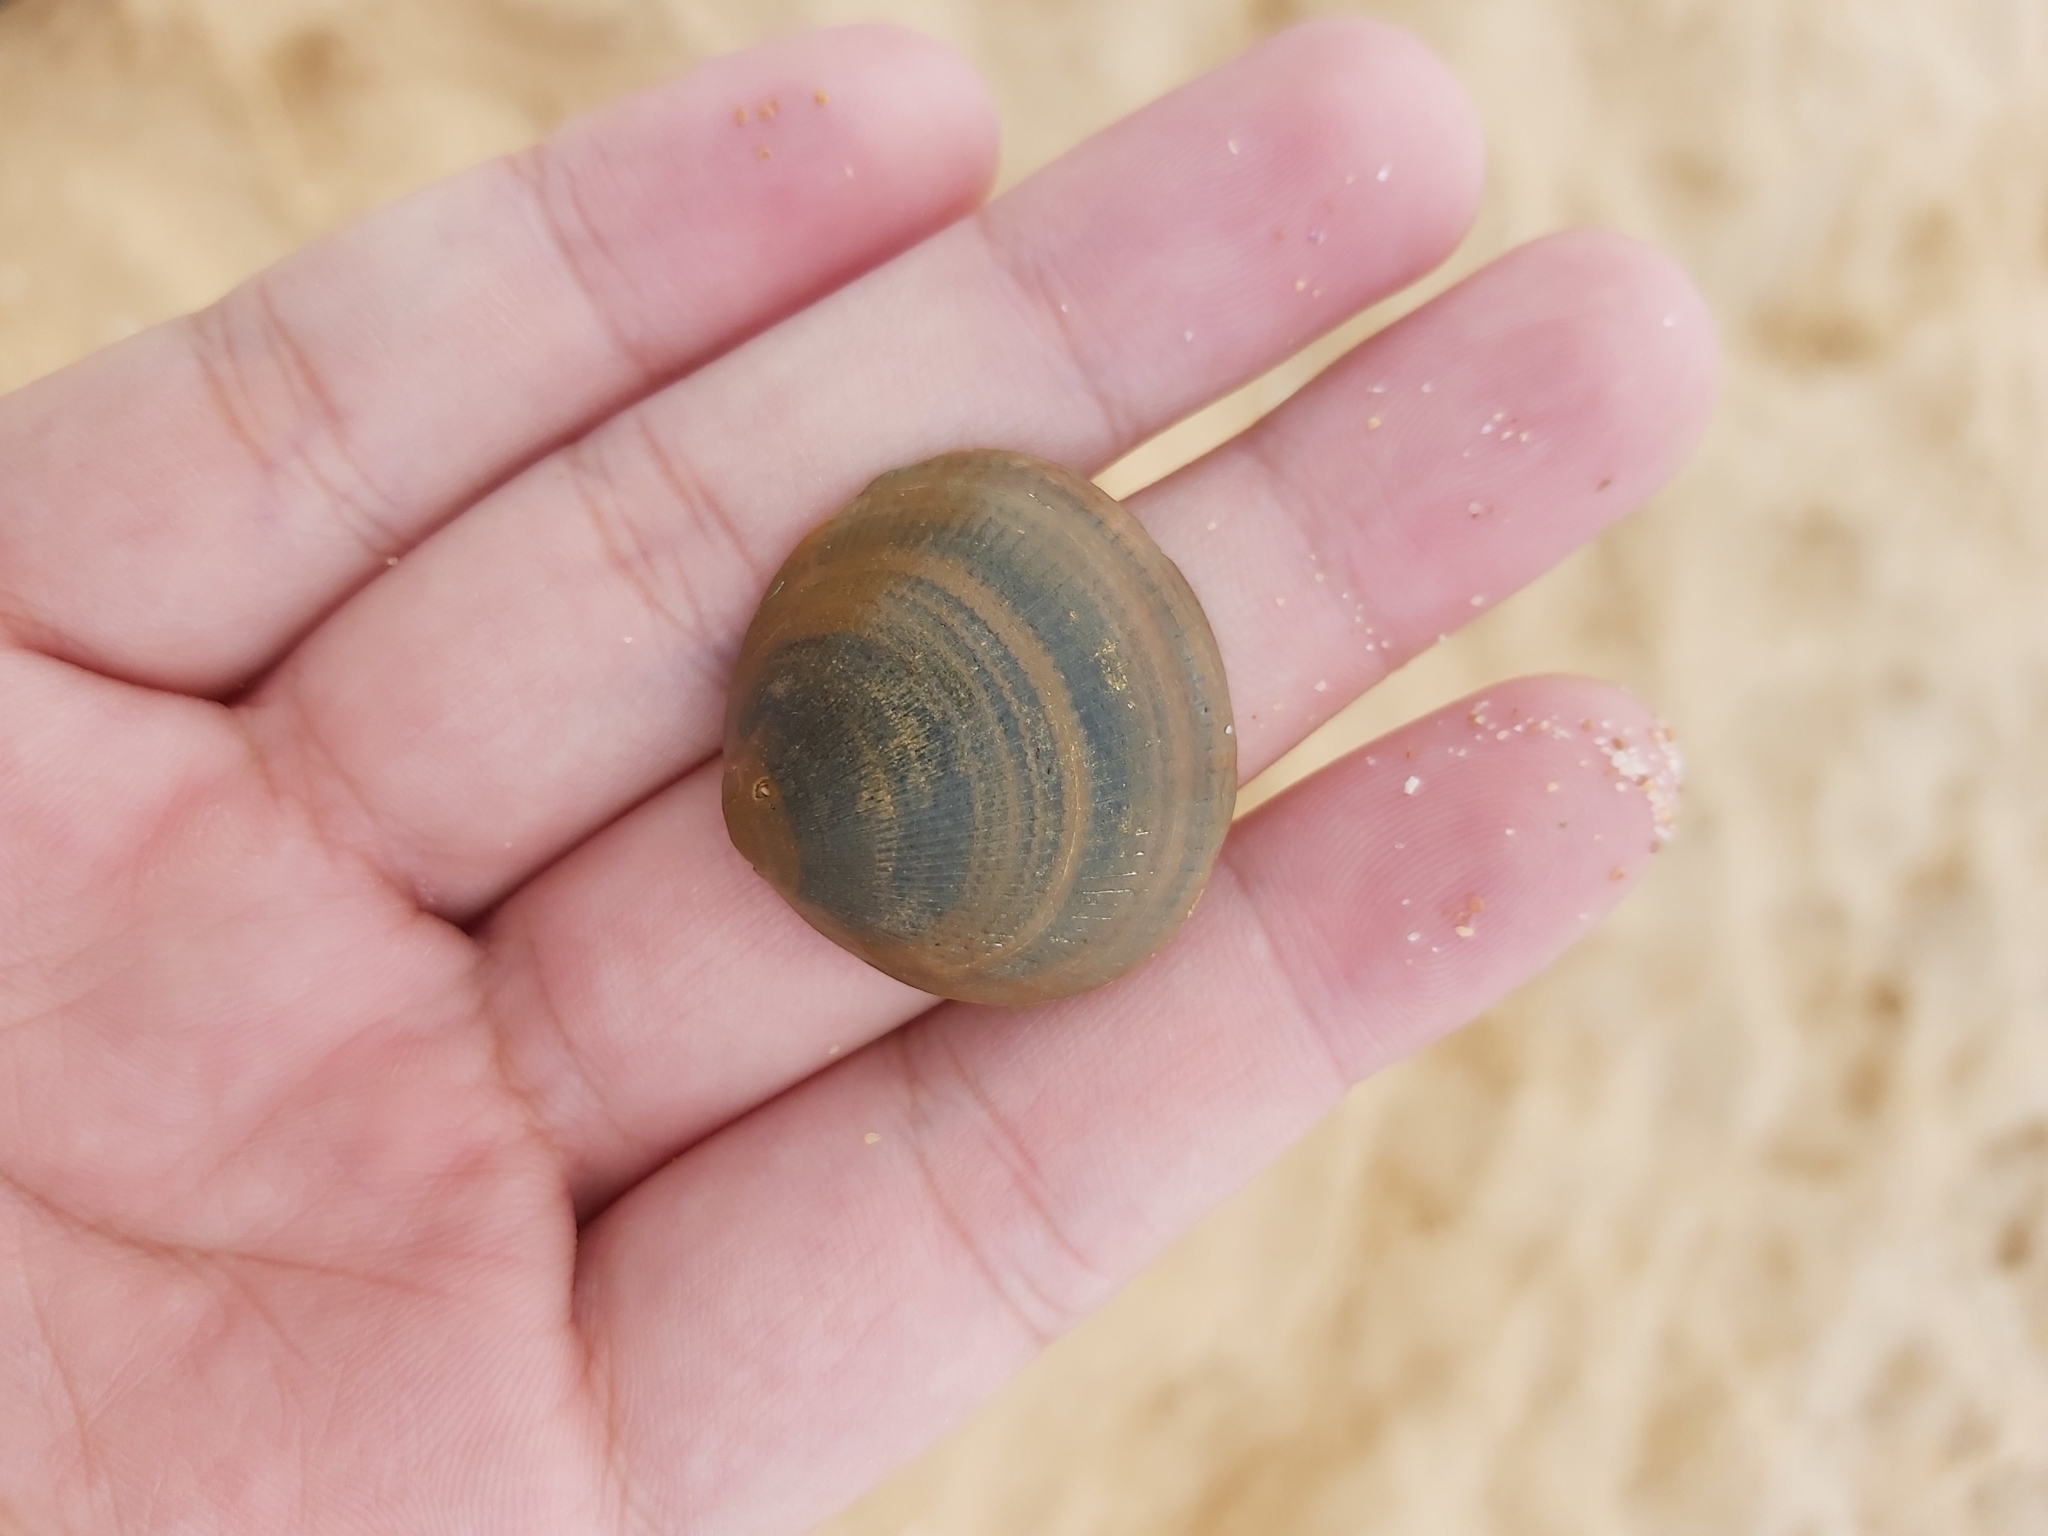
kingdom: Animalia
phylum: Mollusca
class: Bivalvia
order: Arcida
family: Glycymerididae
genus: Glycymeris
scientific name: Glycymeris grayana
